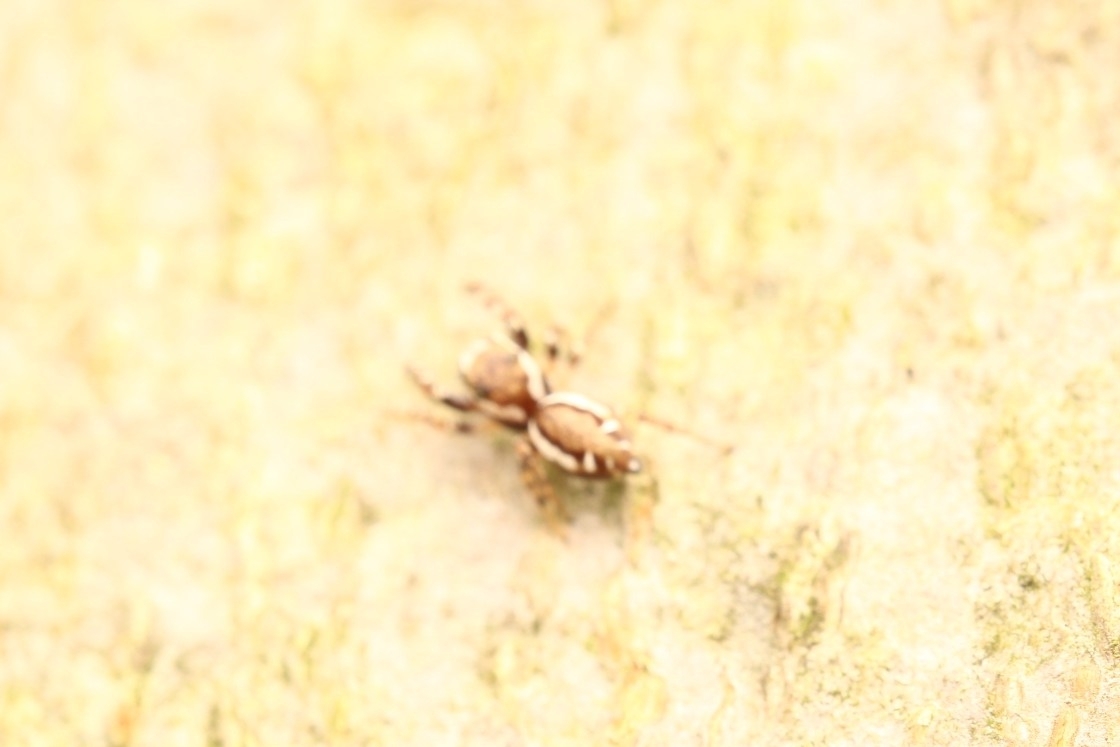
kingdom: Animalia
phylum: Arthropoda
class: Arachnida
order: Araneae
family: Salticidae
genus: Pelegrina
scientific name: Pelegrina proterva
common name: Common white-cheeked jumping spider
